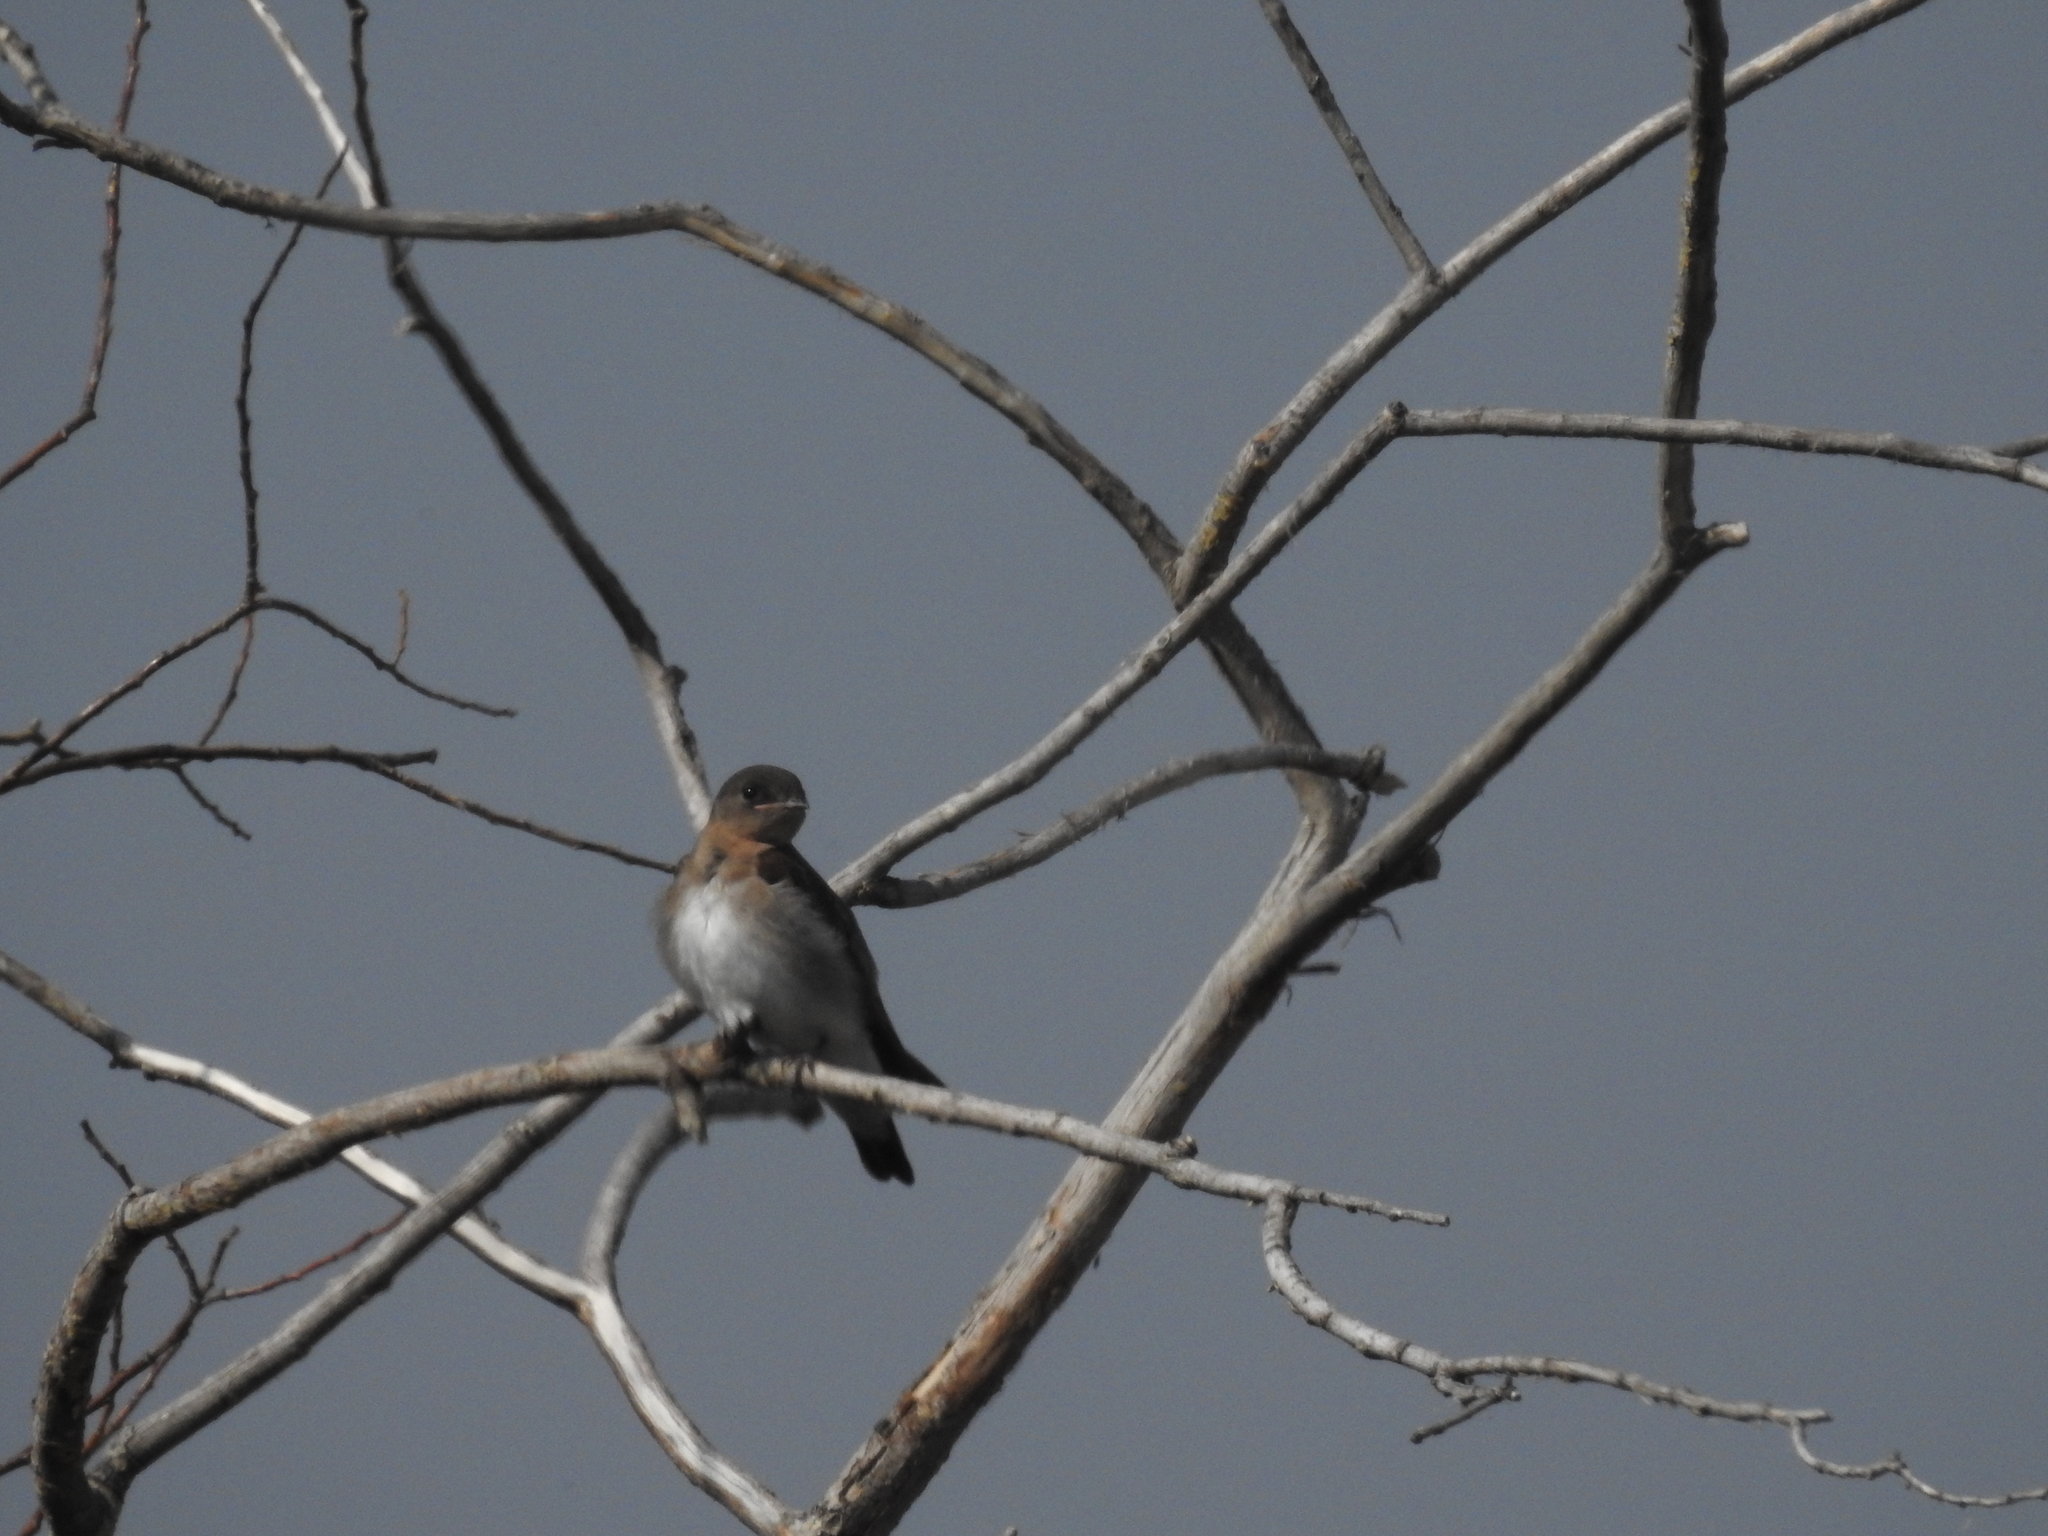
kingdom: Animalia
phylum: Chordata
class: Aves
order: Passeriformes
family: Hirundinidae
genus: Stelgidopteryx
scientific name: Stelgidopteryx serripennis
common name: Northern rough-winged swallow
